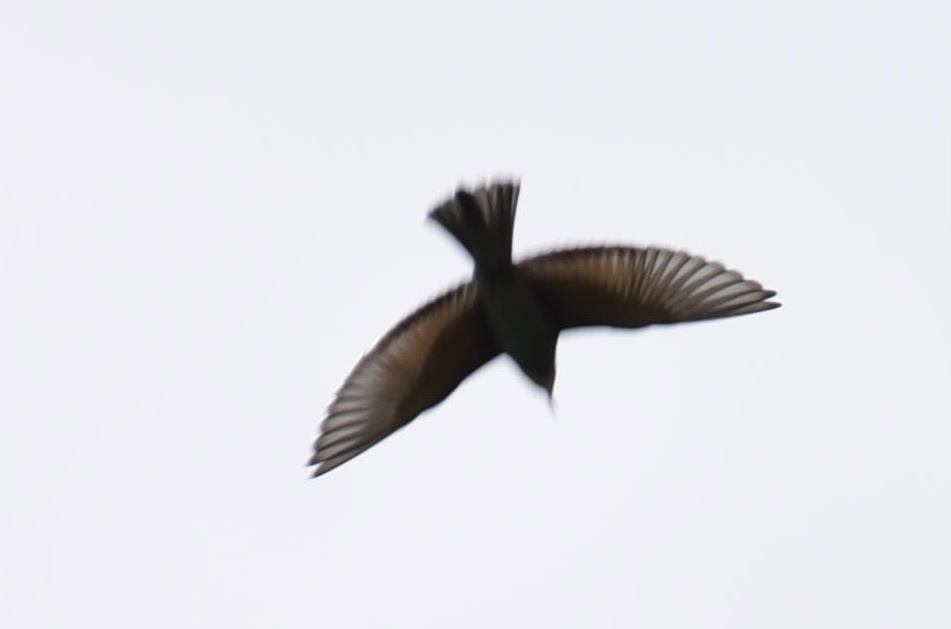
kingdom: Animalia
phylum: Chordata
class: Aves
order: Coraciiformes
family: Meropidae
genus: Merops
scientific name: Merops apiaster
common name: European bee-eater
